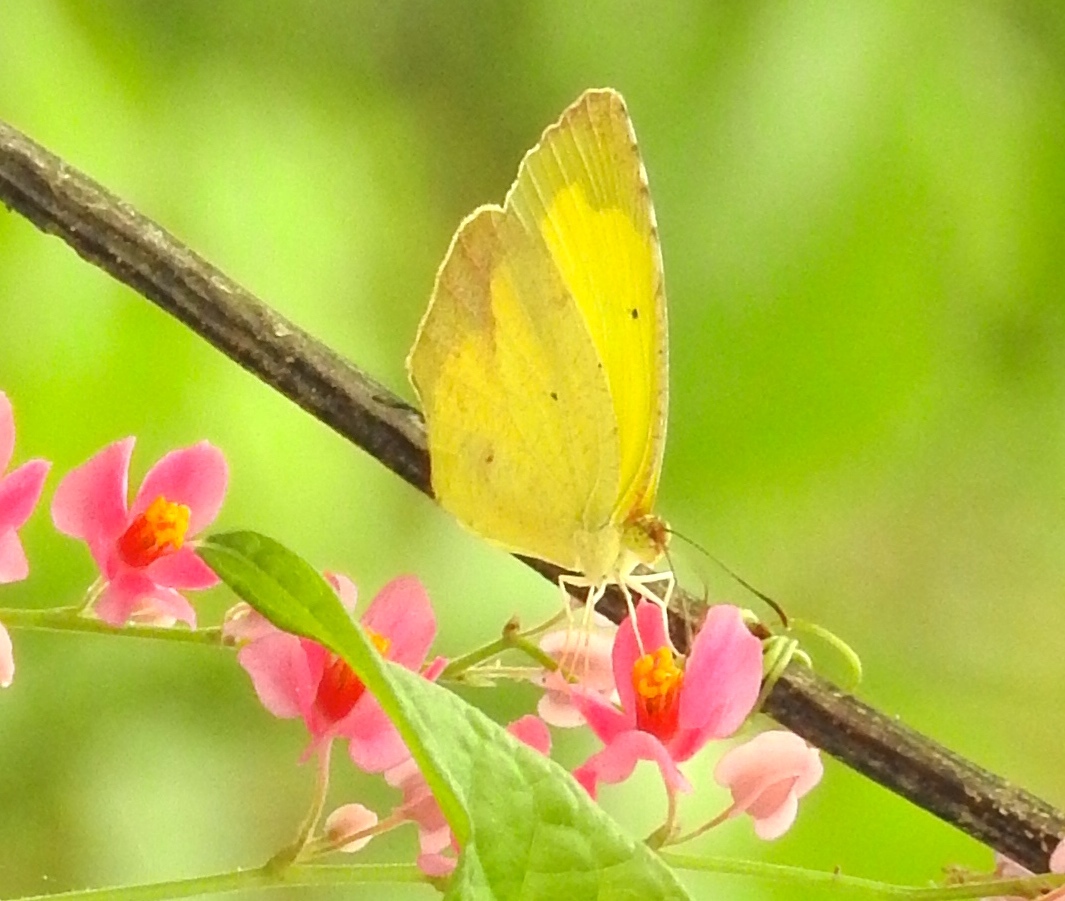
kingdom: Animalia
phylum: Arthropoda
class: Insecta
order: Lepidoptera
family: Pieridae
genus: Abaeis
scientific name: Abaeis boisduvaliana
